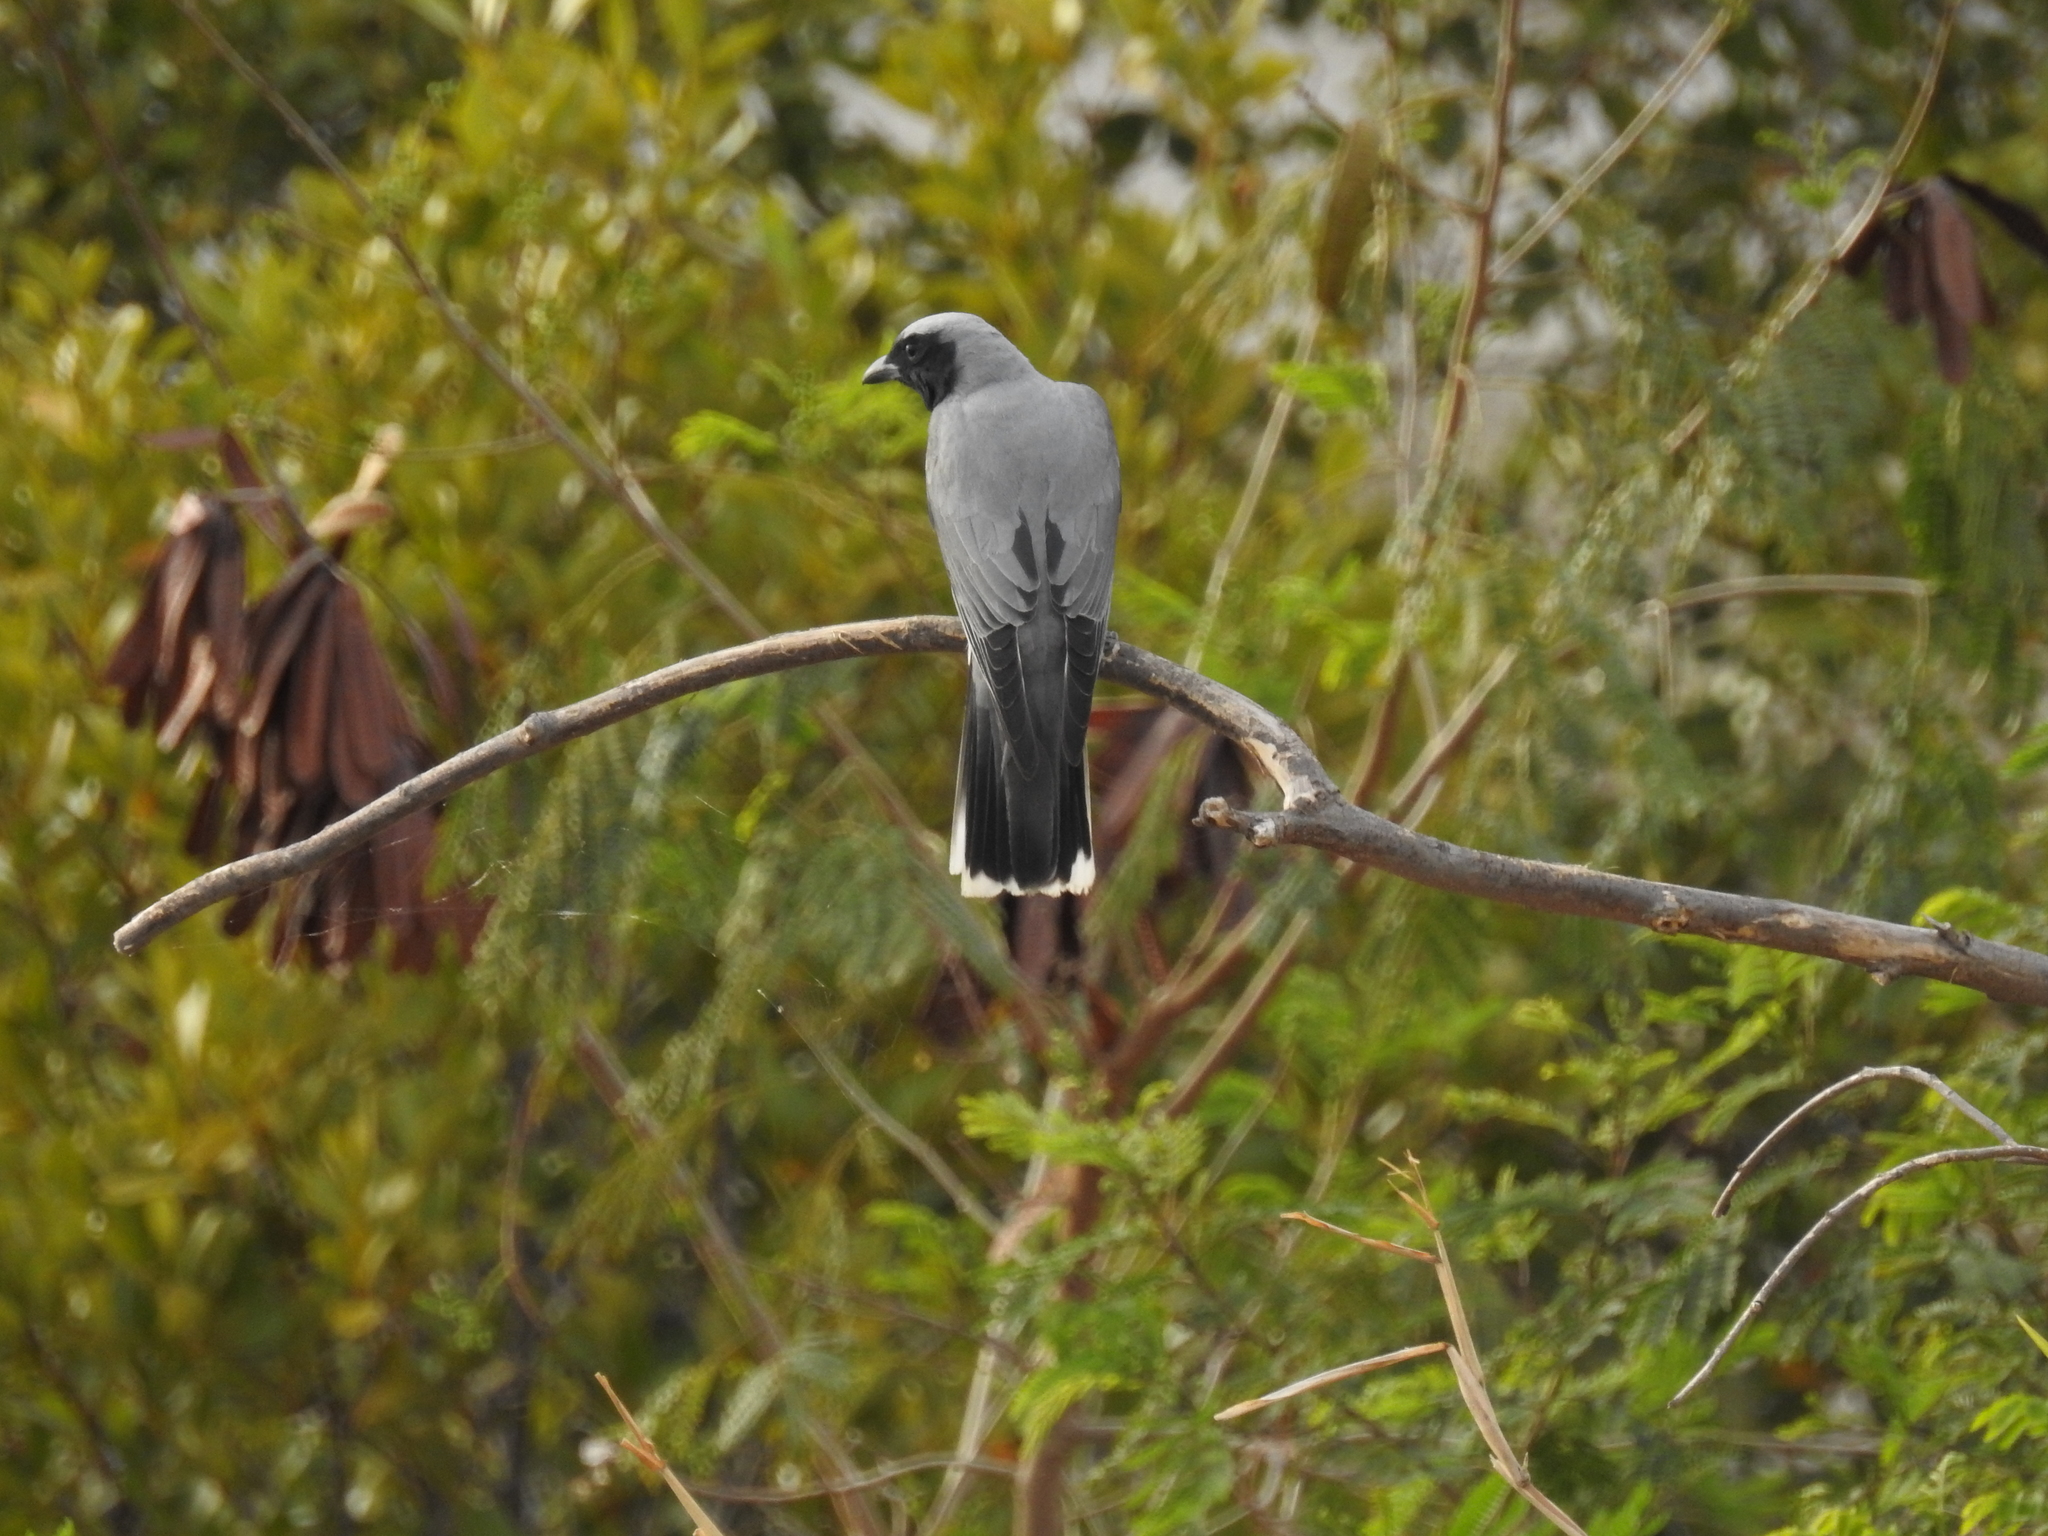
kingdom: Animalia
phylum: Chordata
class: Aves
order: Passeriformes
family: Campephagidae
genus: Coracina
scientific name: Coracina novaehollandiae
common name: Black-faced cuckooshrike
